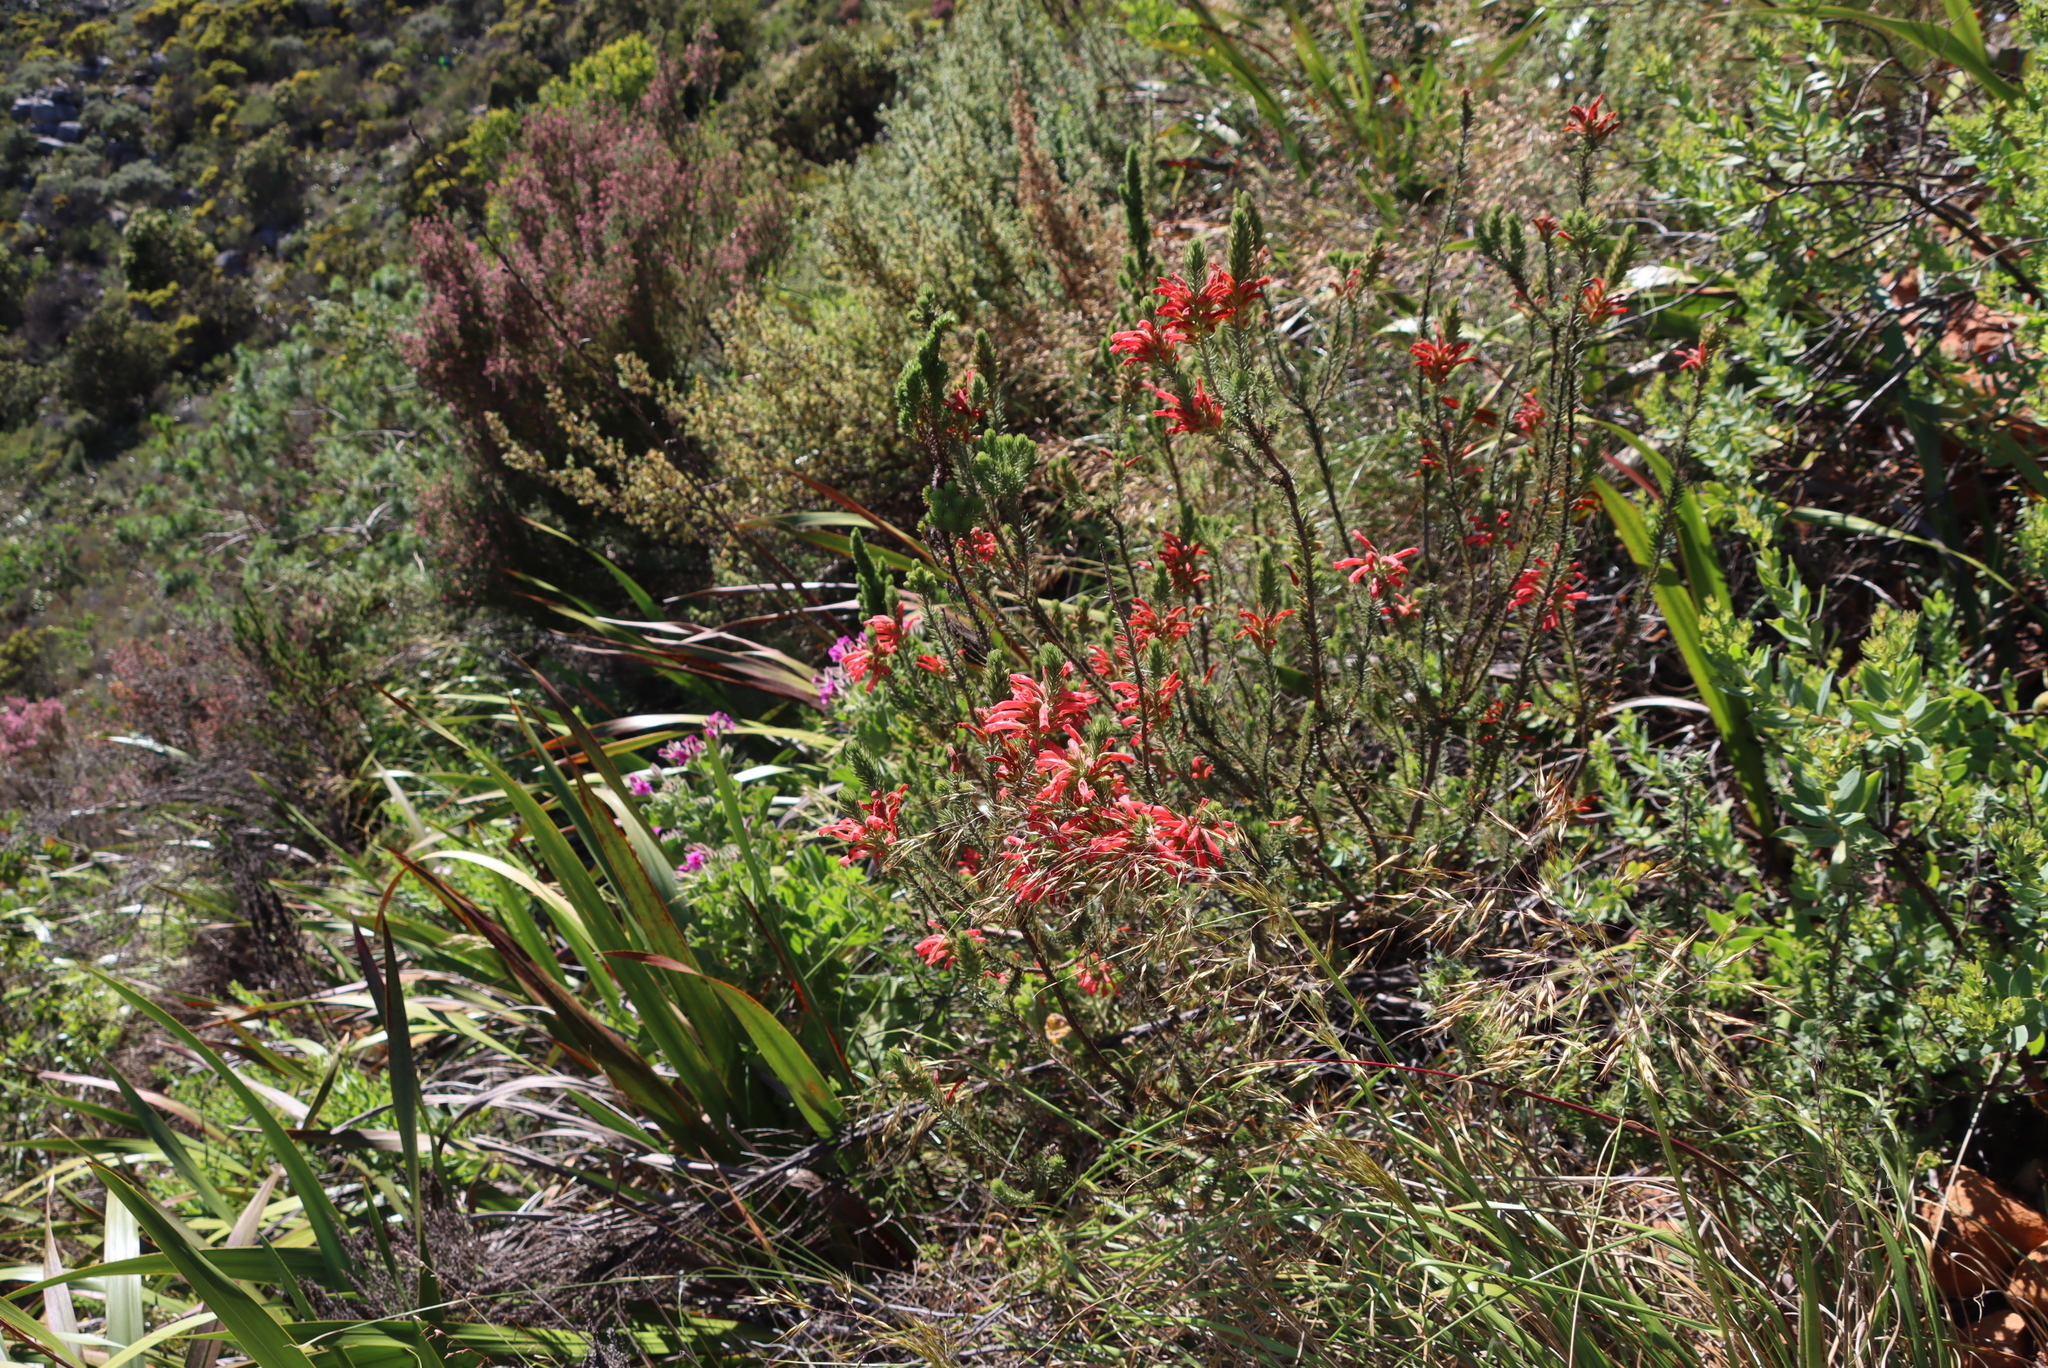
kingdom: Plantae
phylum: Tracheophyta
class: Magnoliopsida
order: Ericales
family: Ericaceae
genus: Erica
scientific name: Erica abietina
